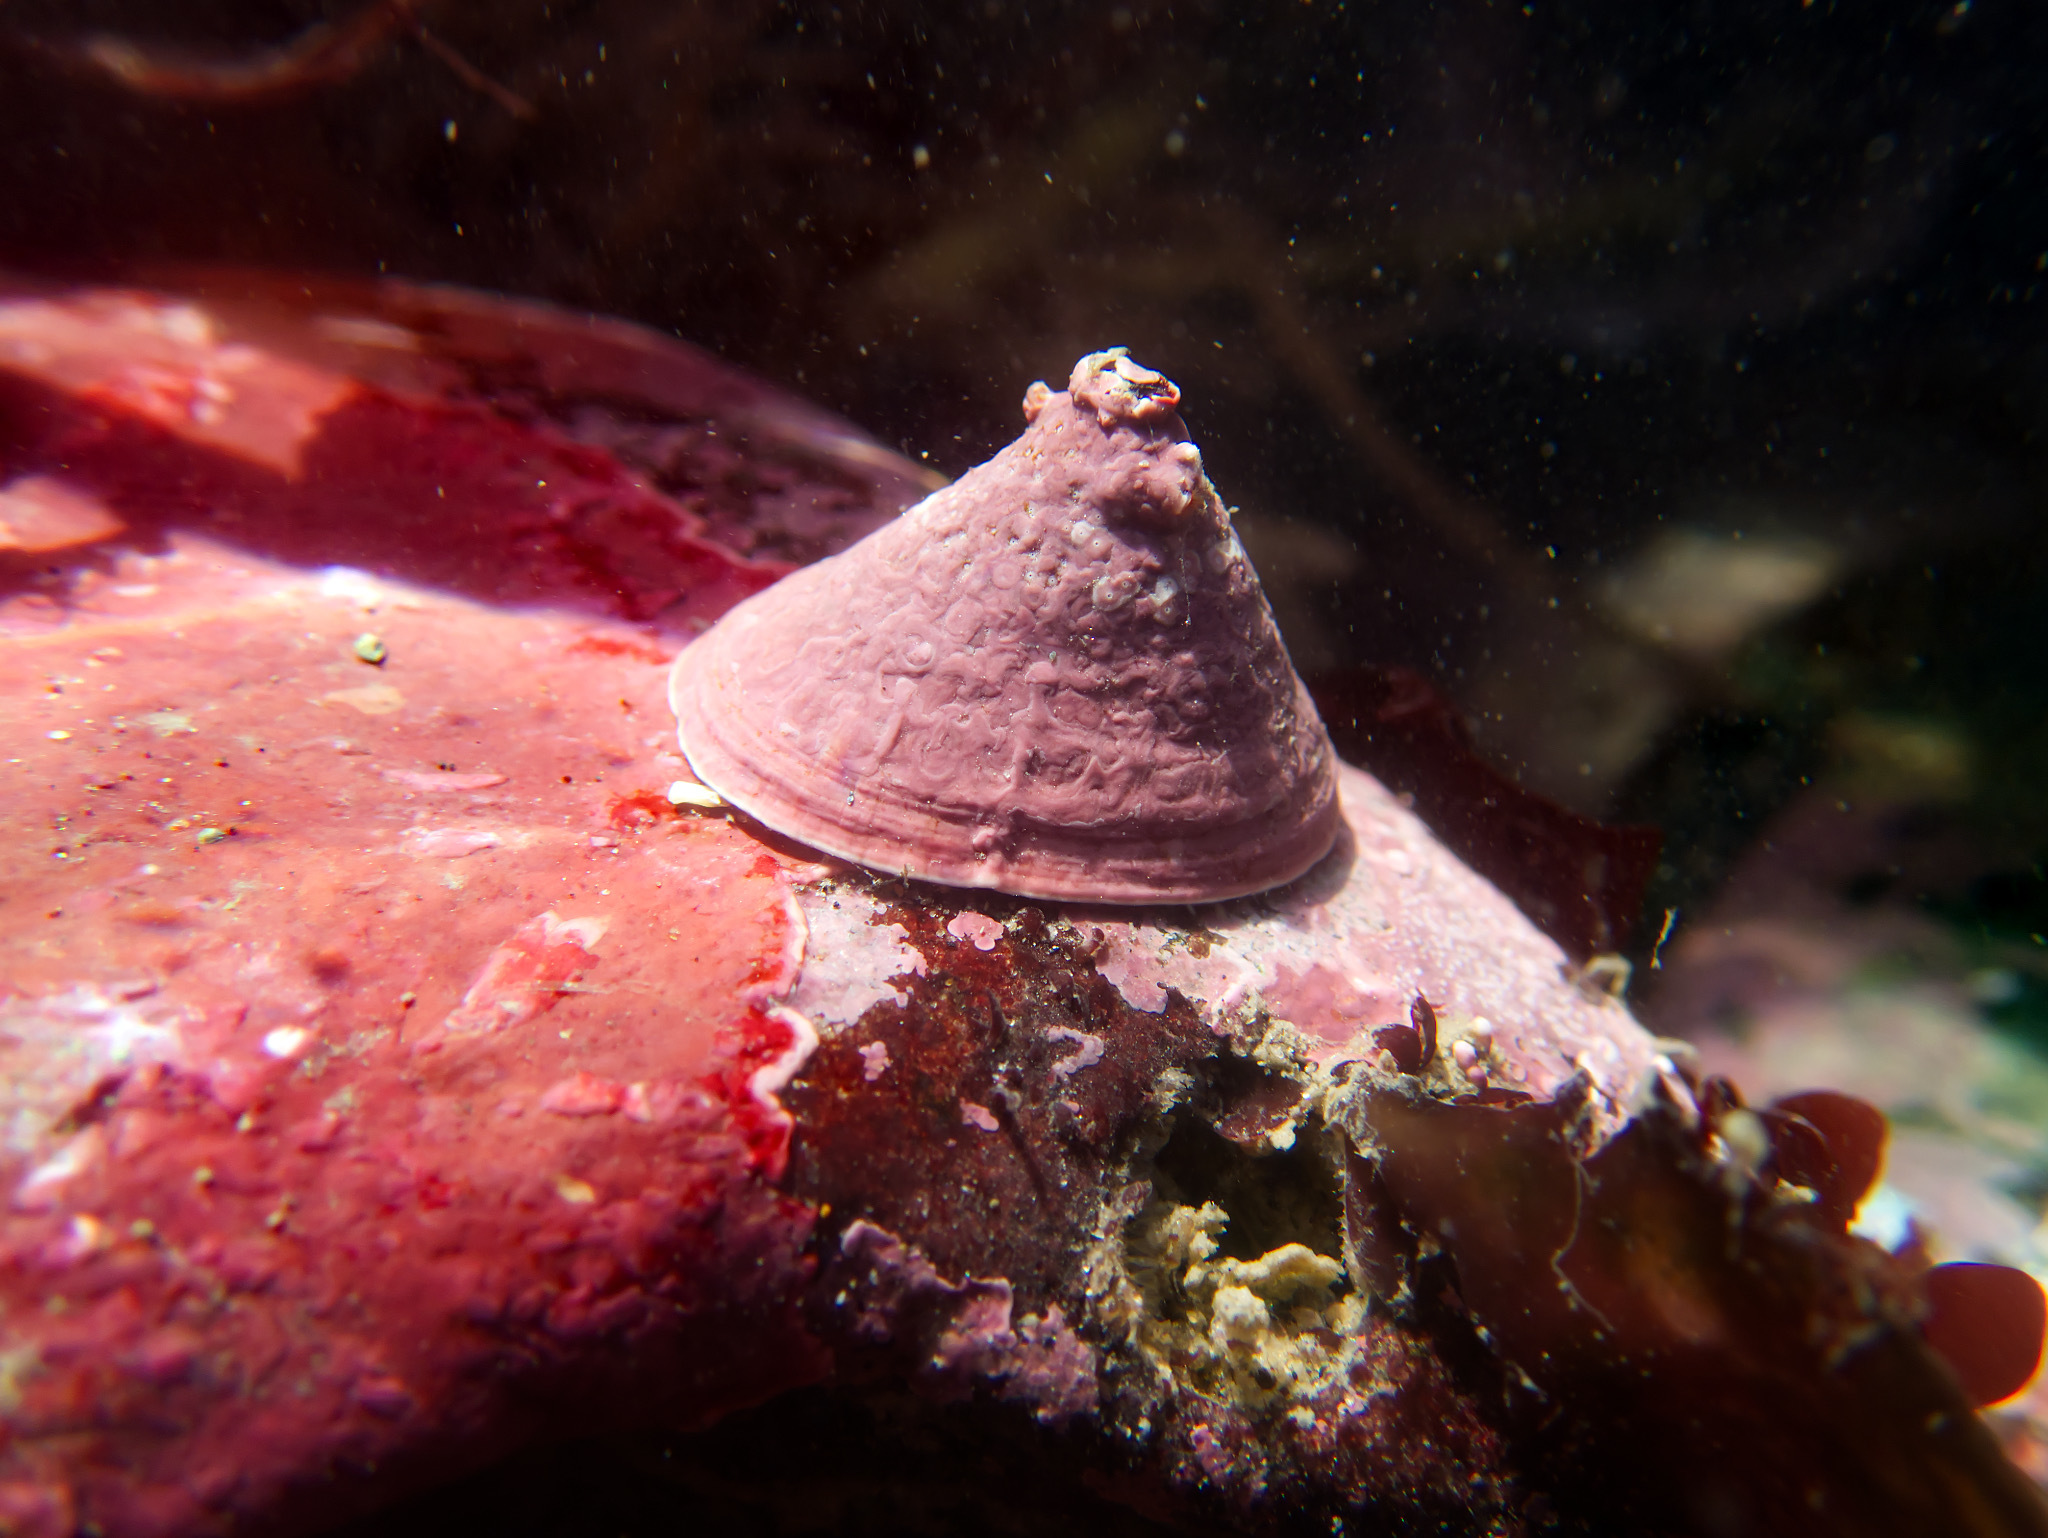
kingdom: Animalia
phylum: Mollusca
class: Gastropoda
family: Acmaeidae
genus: Acmaea
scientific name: Acmaea mitra
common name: Pacific white cap limpet
